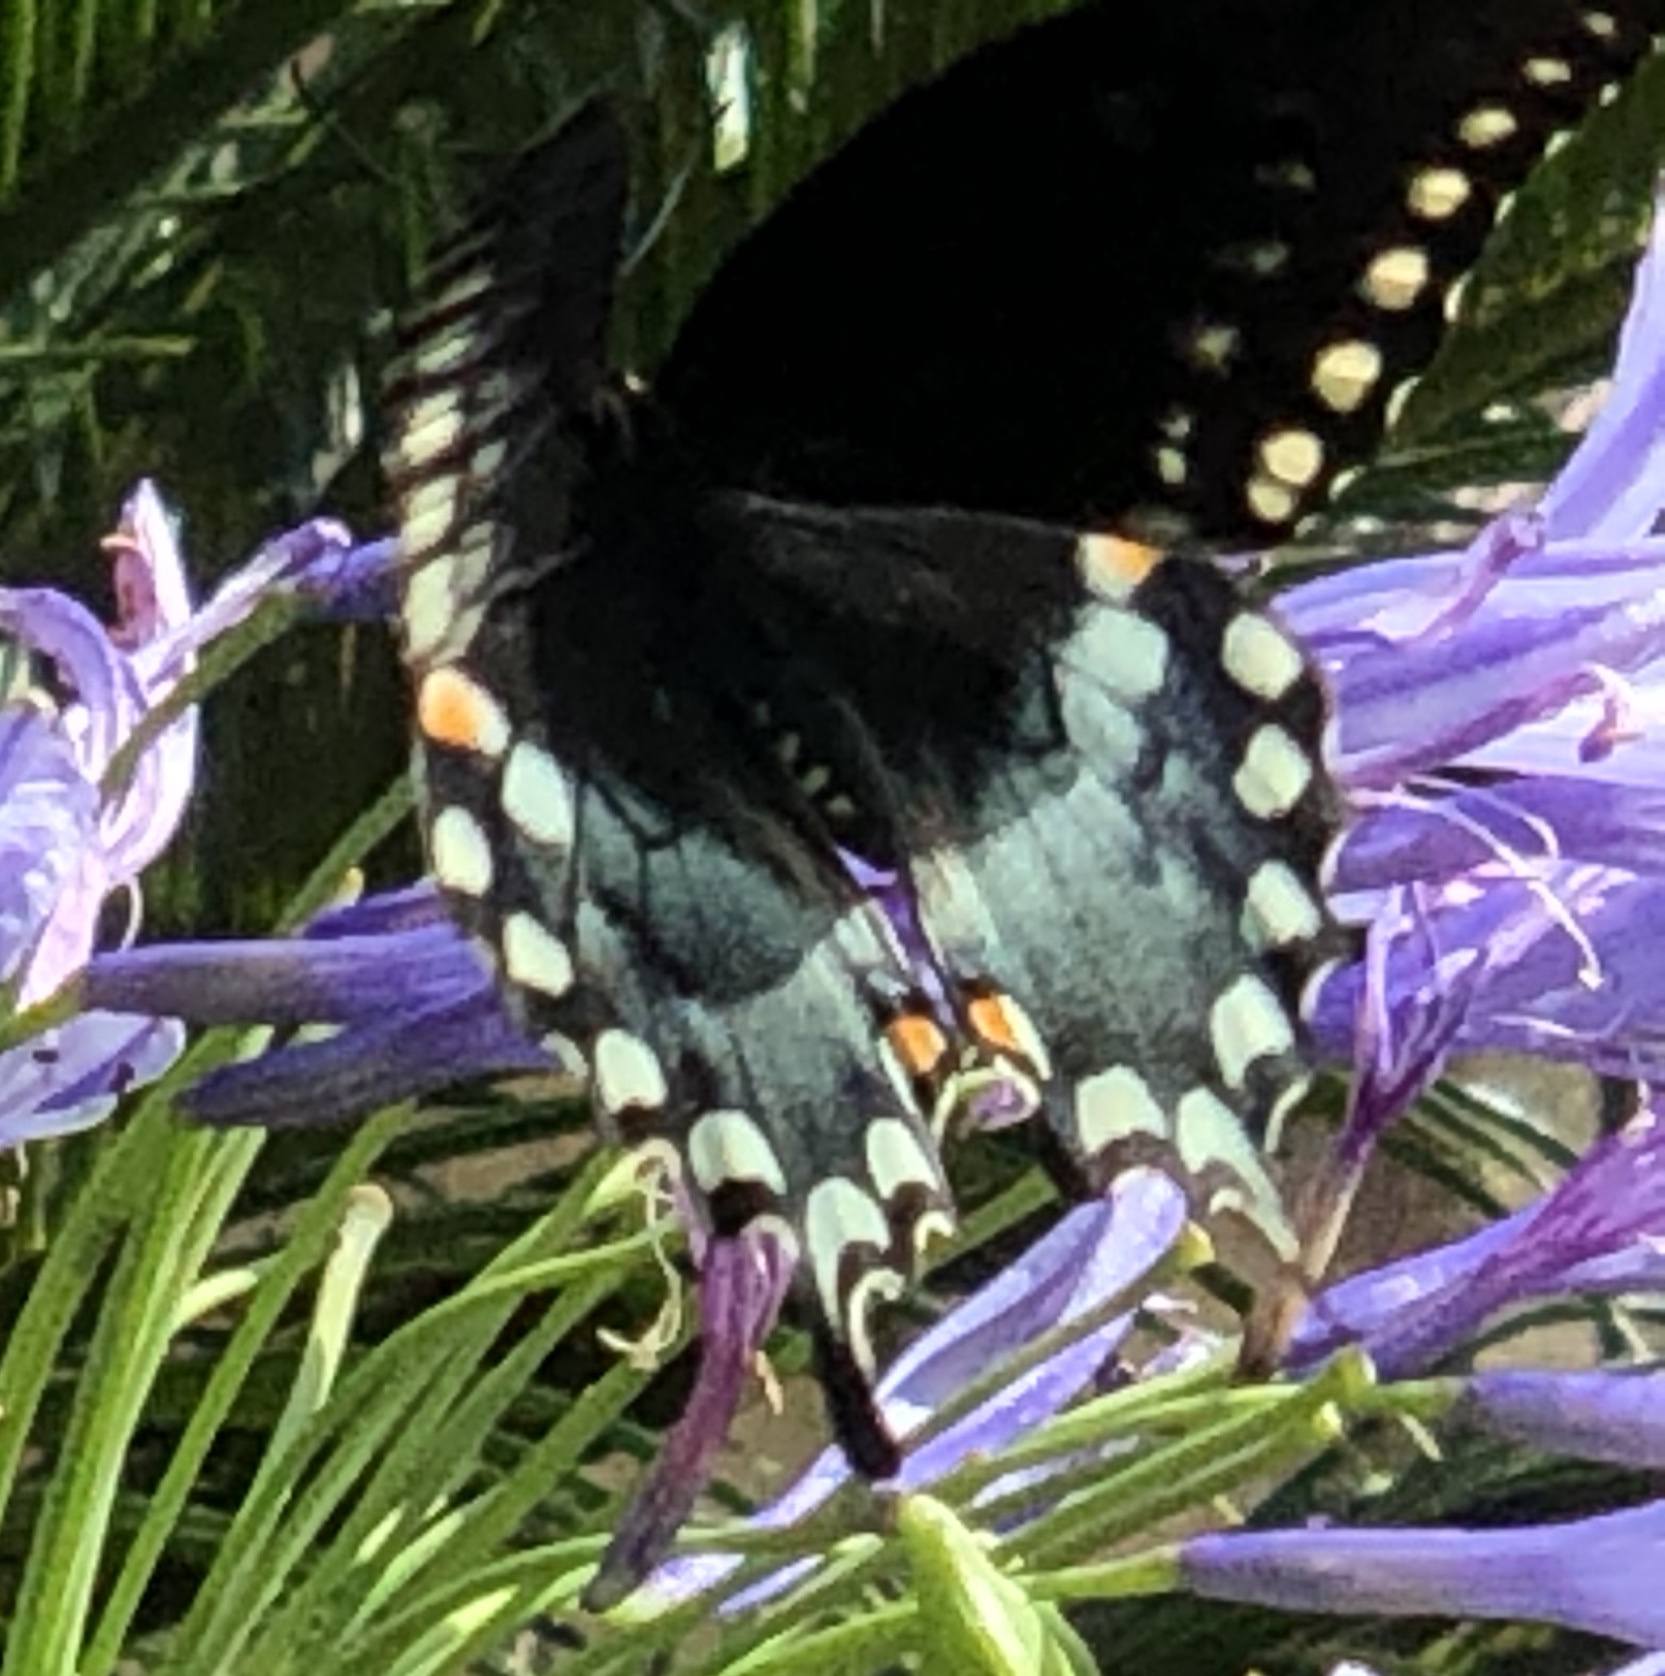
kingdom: Animalia
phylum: Arthropoda
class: Insecta
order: Lepidoptera
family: Papilionidae
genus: Papilio
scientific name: Papilio troilus
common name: Spicebush swallowtail
